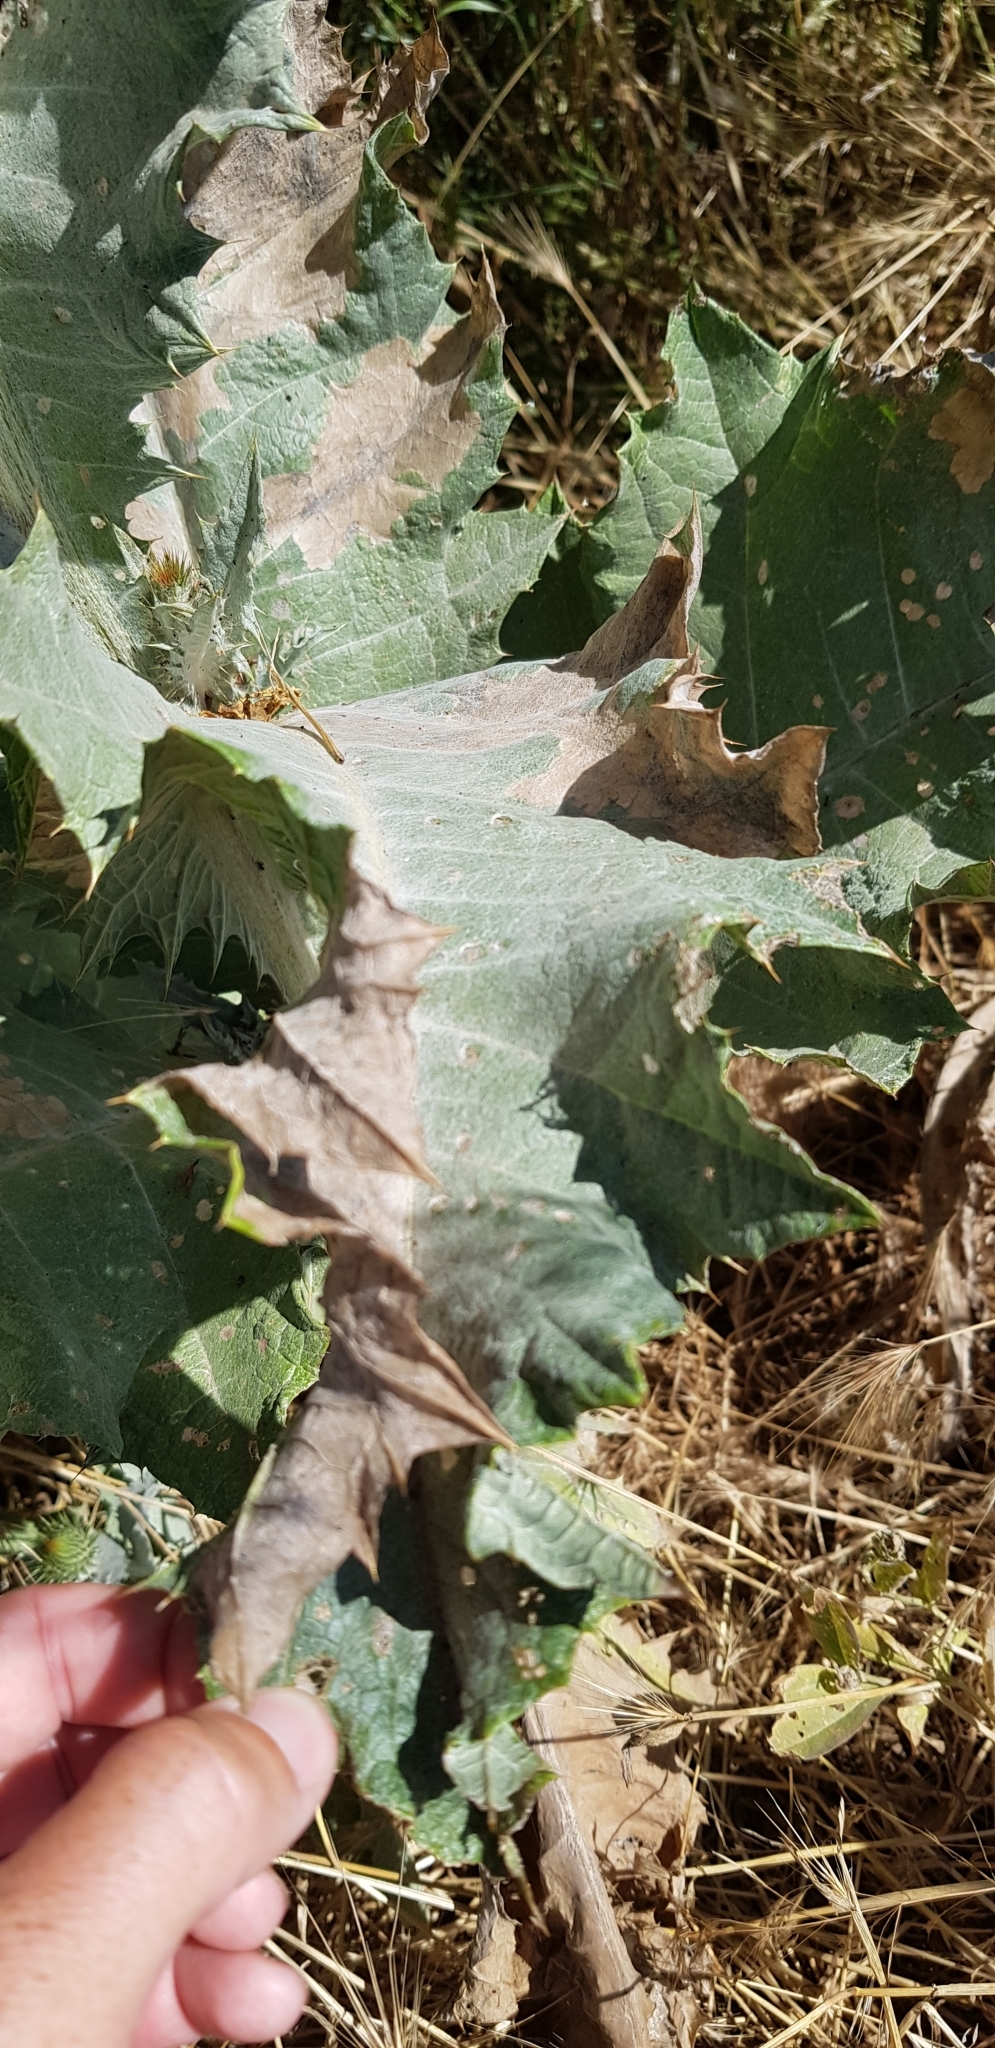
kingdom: Plantae
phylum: Tracheophyta
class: Magnoliopsida
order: Asterales
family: Asteraceae
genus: Onopordum
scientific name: Onopordum acanthium
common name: Scotch thistle
